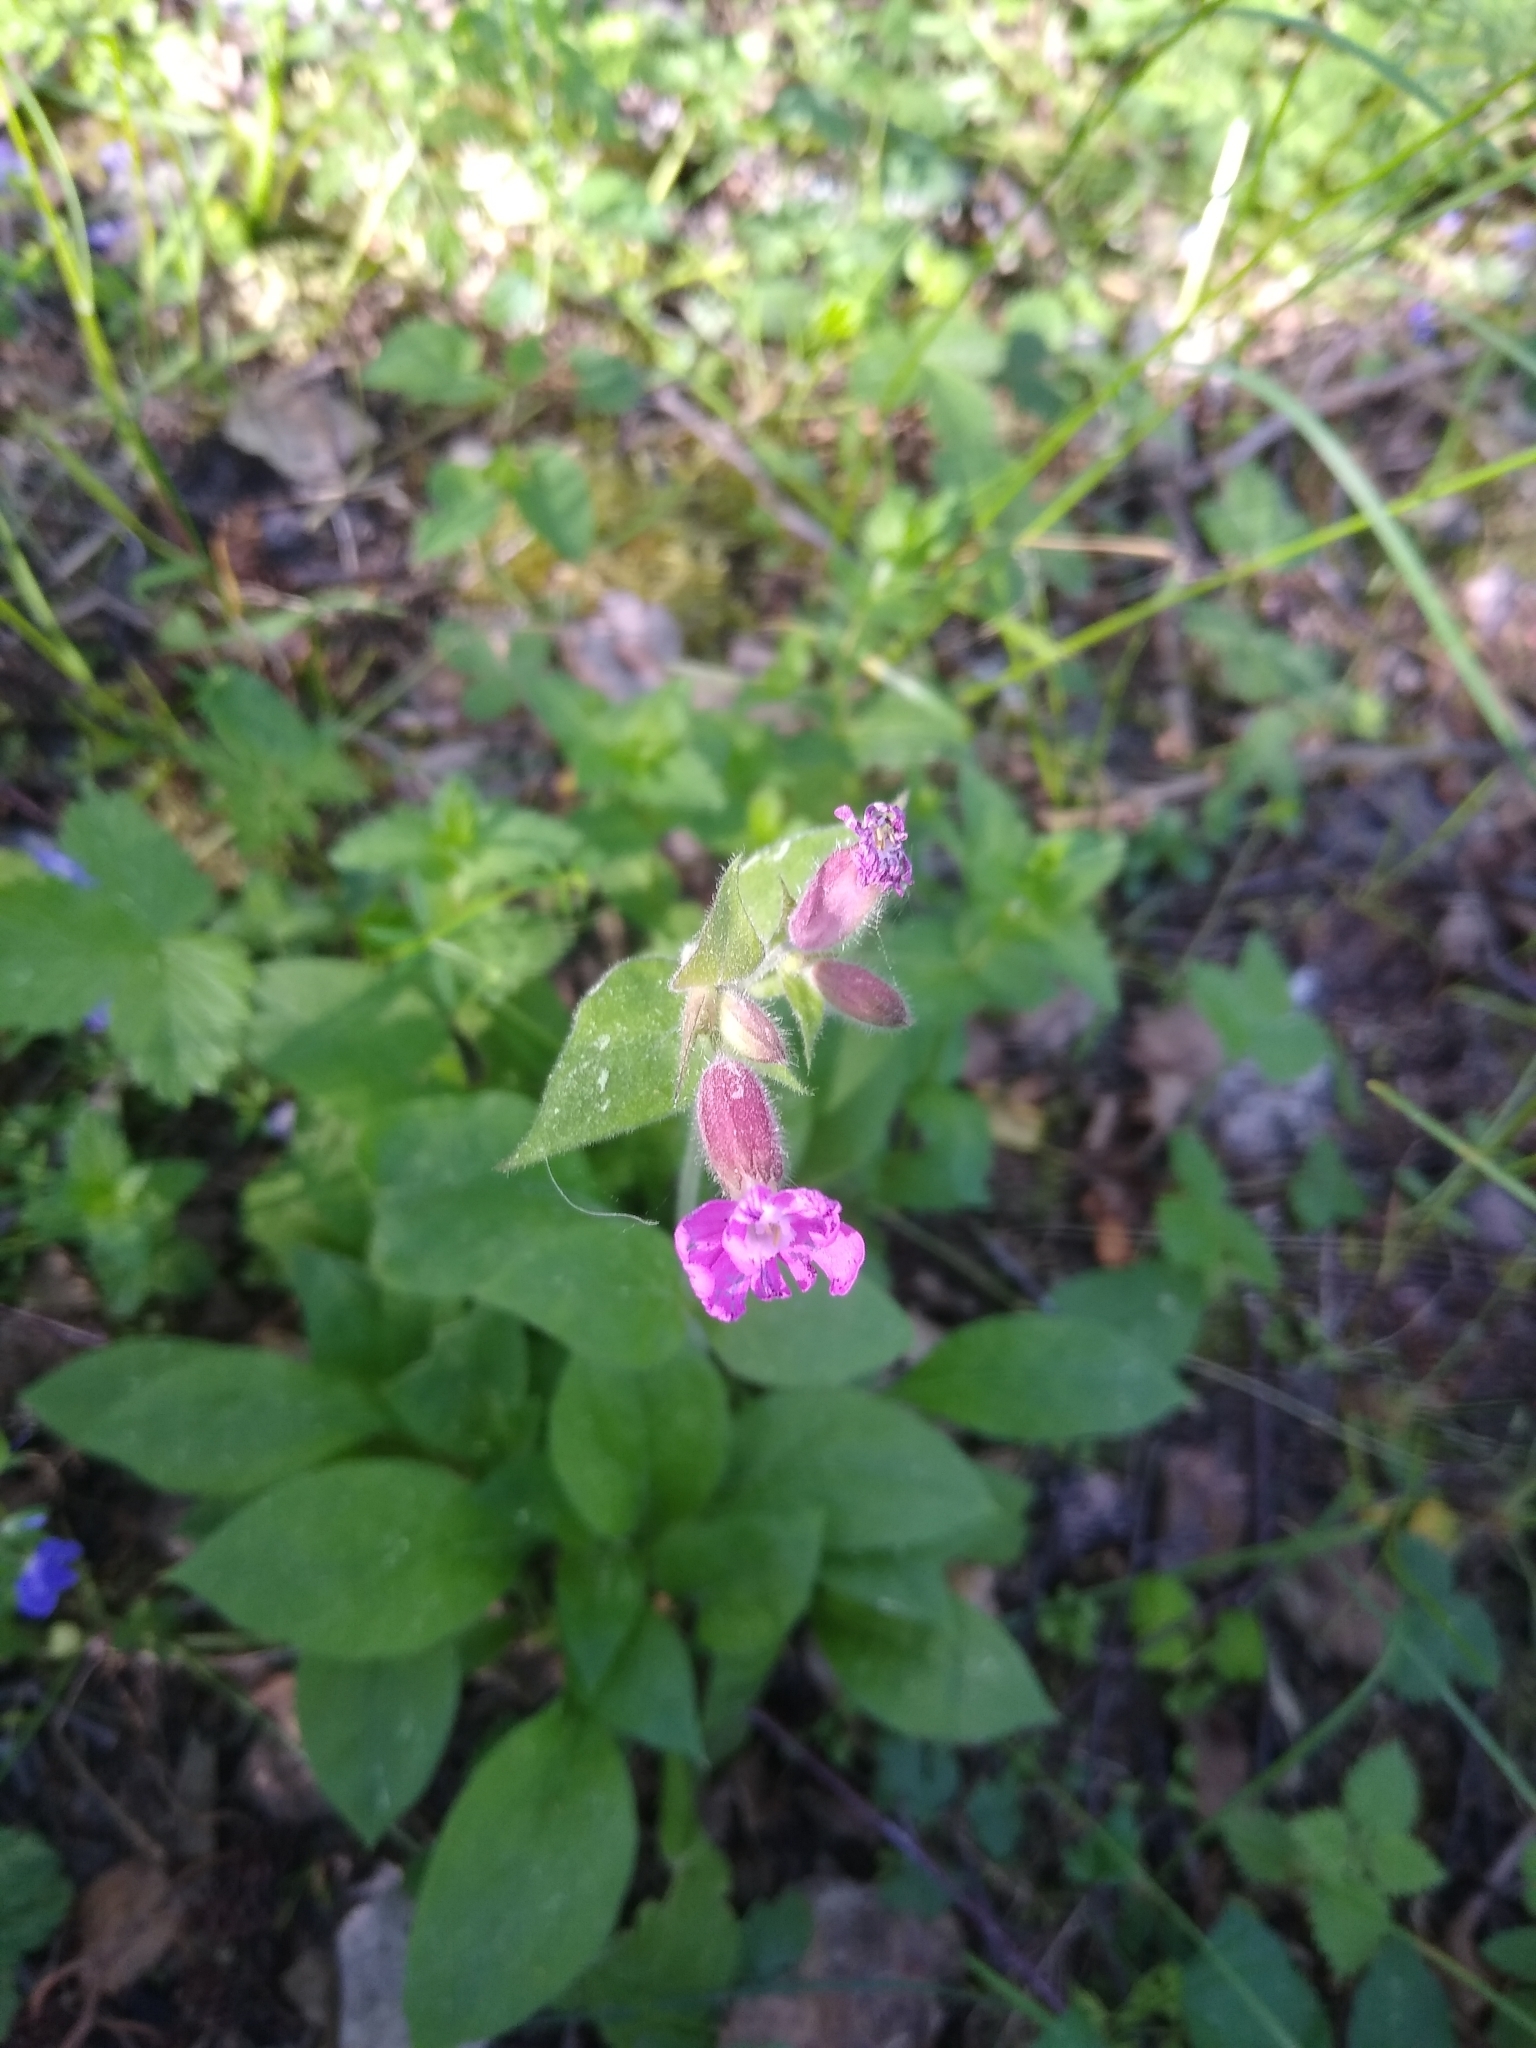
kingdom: Plantae
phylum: Tracheophyta
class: Magnoliopsida
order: Caryophyllales
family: Caryophyllaceae
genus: Silene
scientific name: Silene dioica
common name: Red campion
